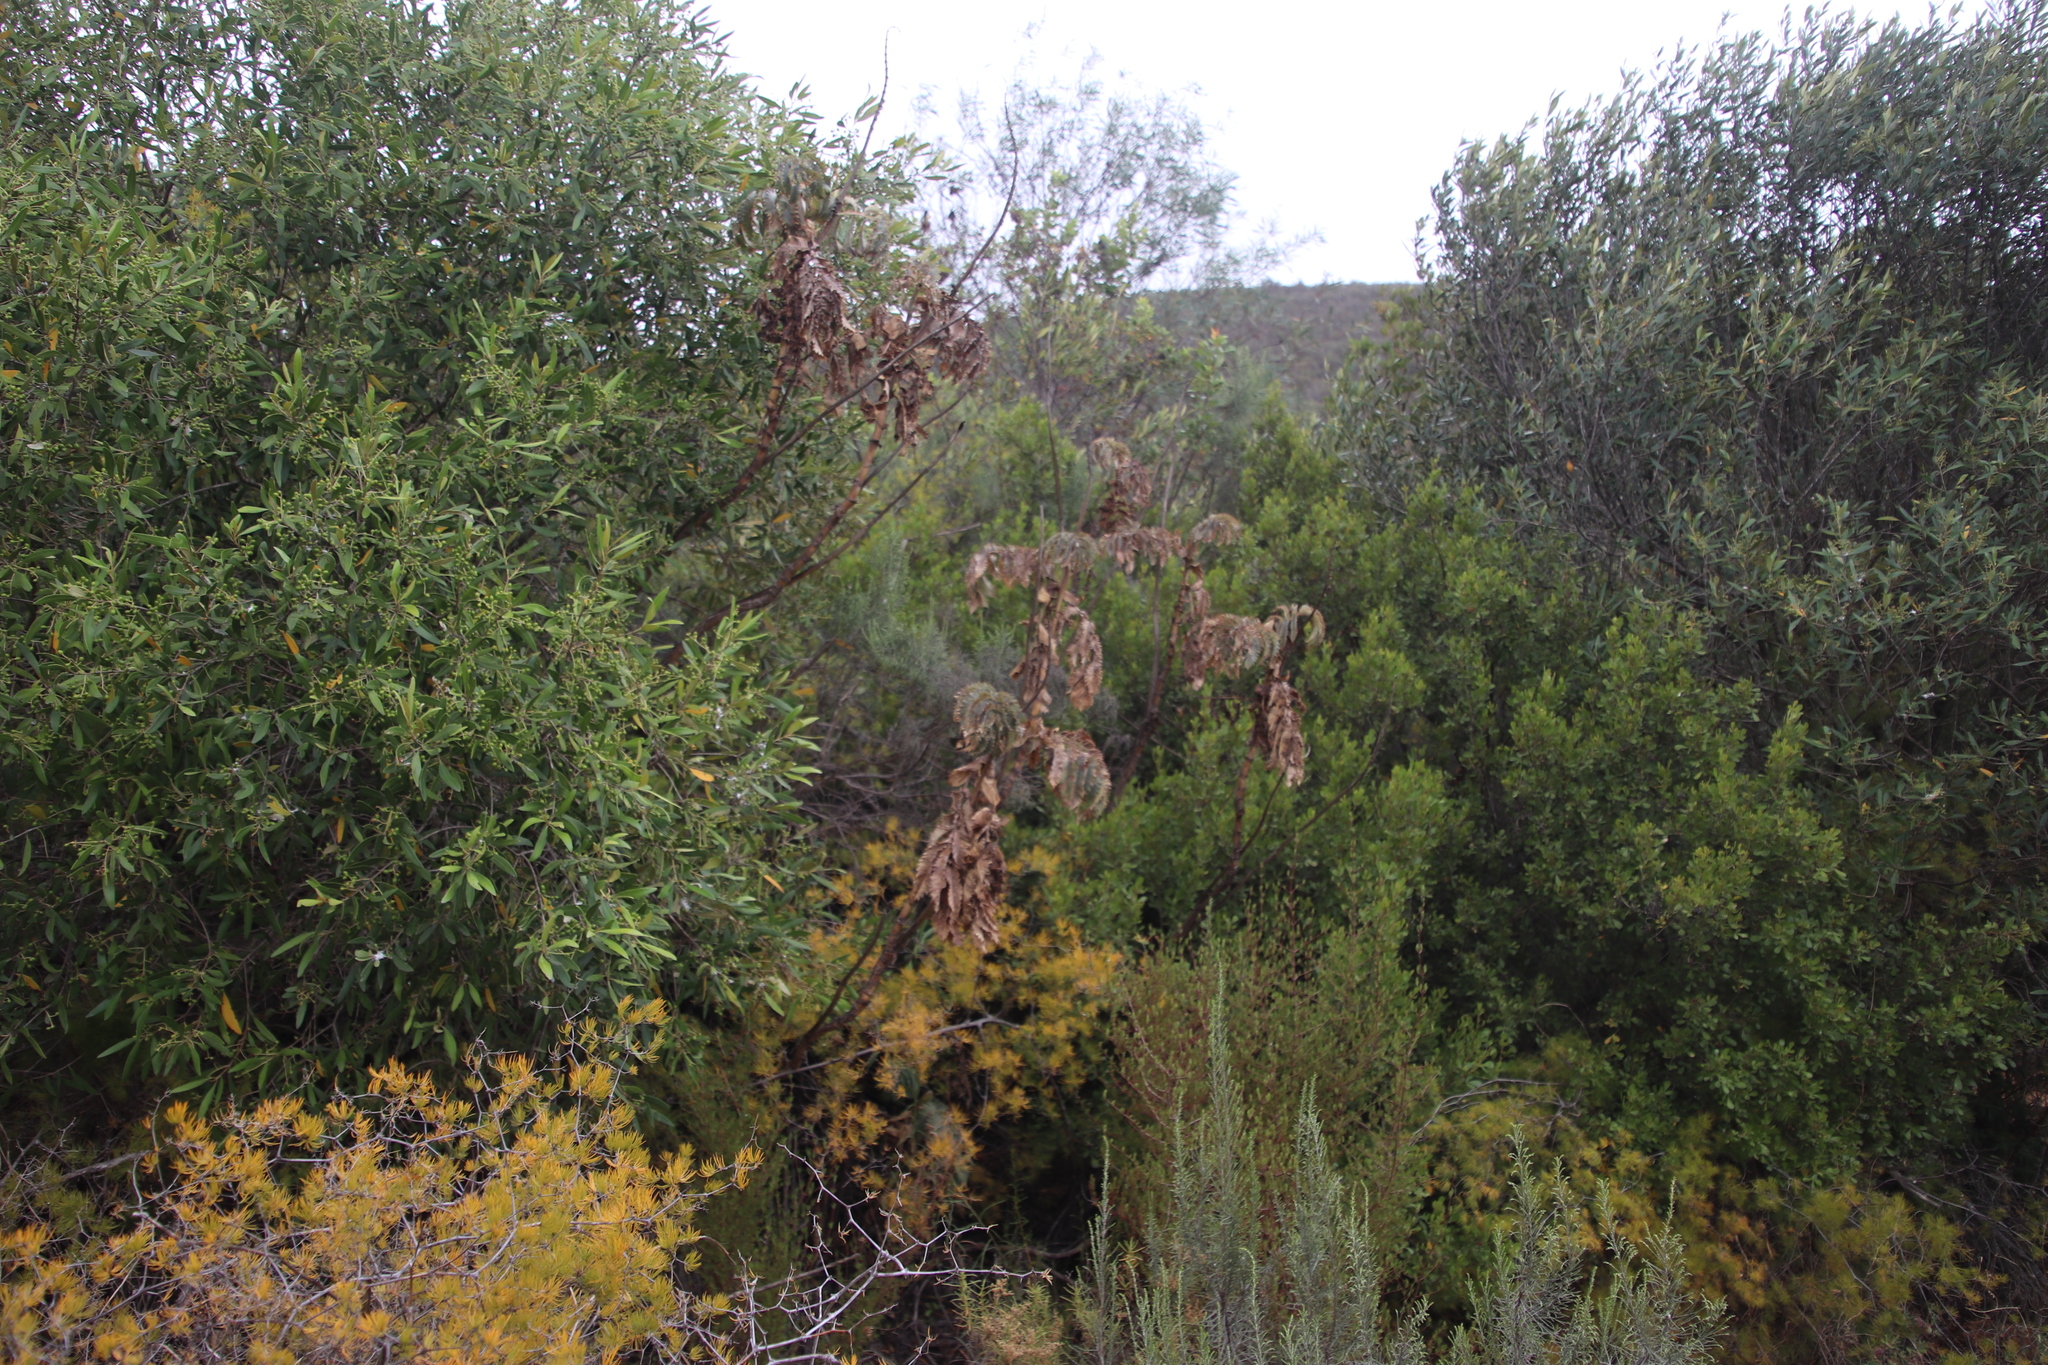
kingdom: Plantae
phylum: Tracheophyta
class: Magnoliopsida
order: Geraniales
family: Melianthaceae
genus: Melianthus
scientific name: Melianthus major
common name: Honey-flower
